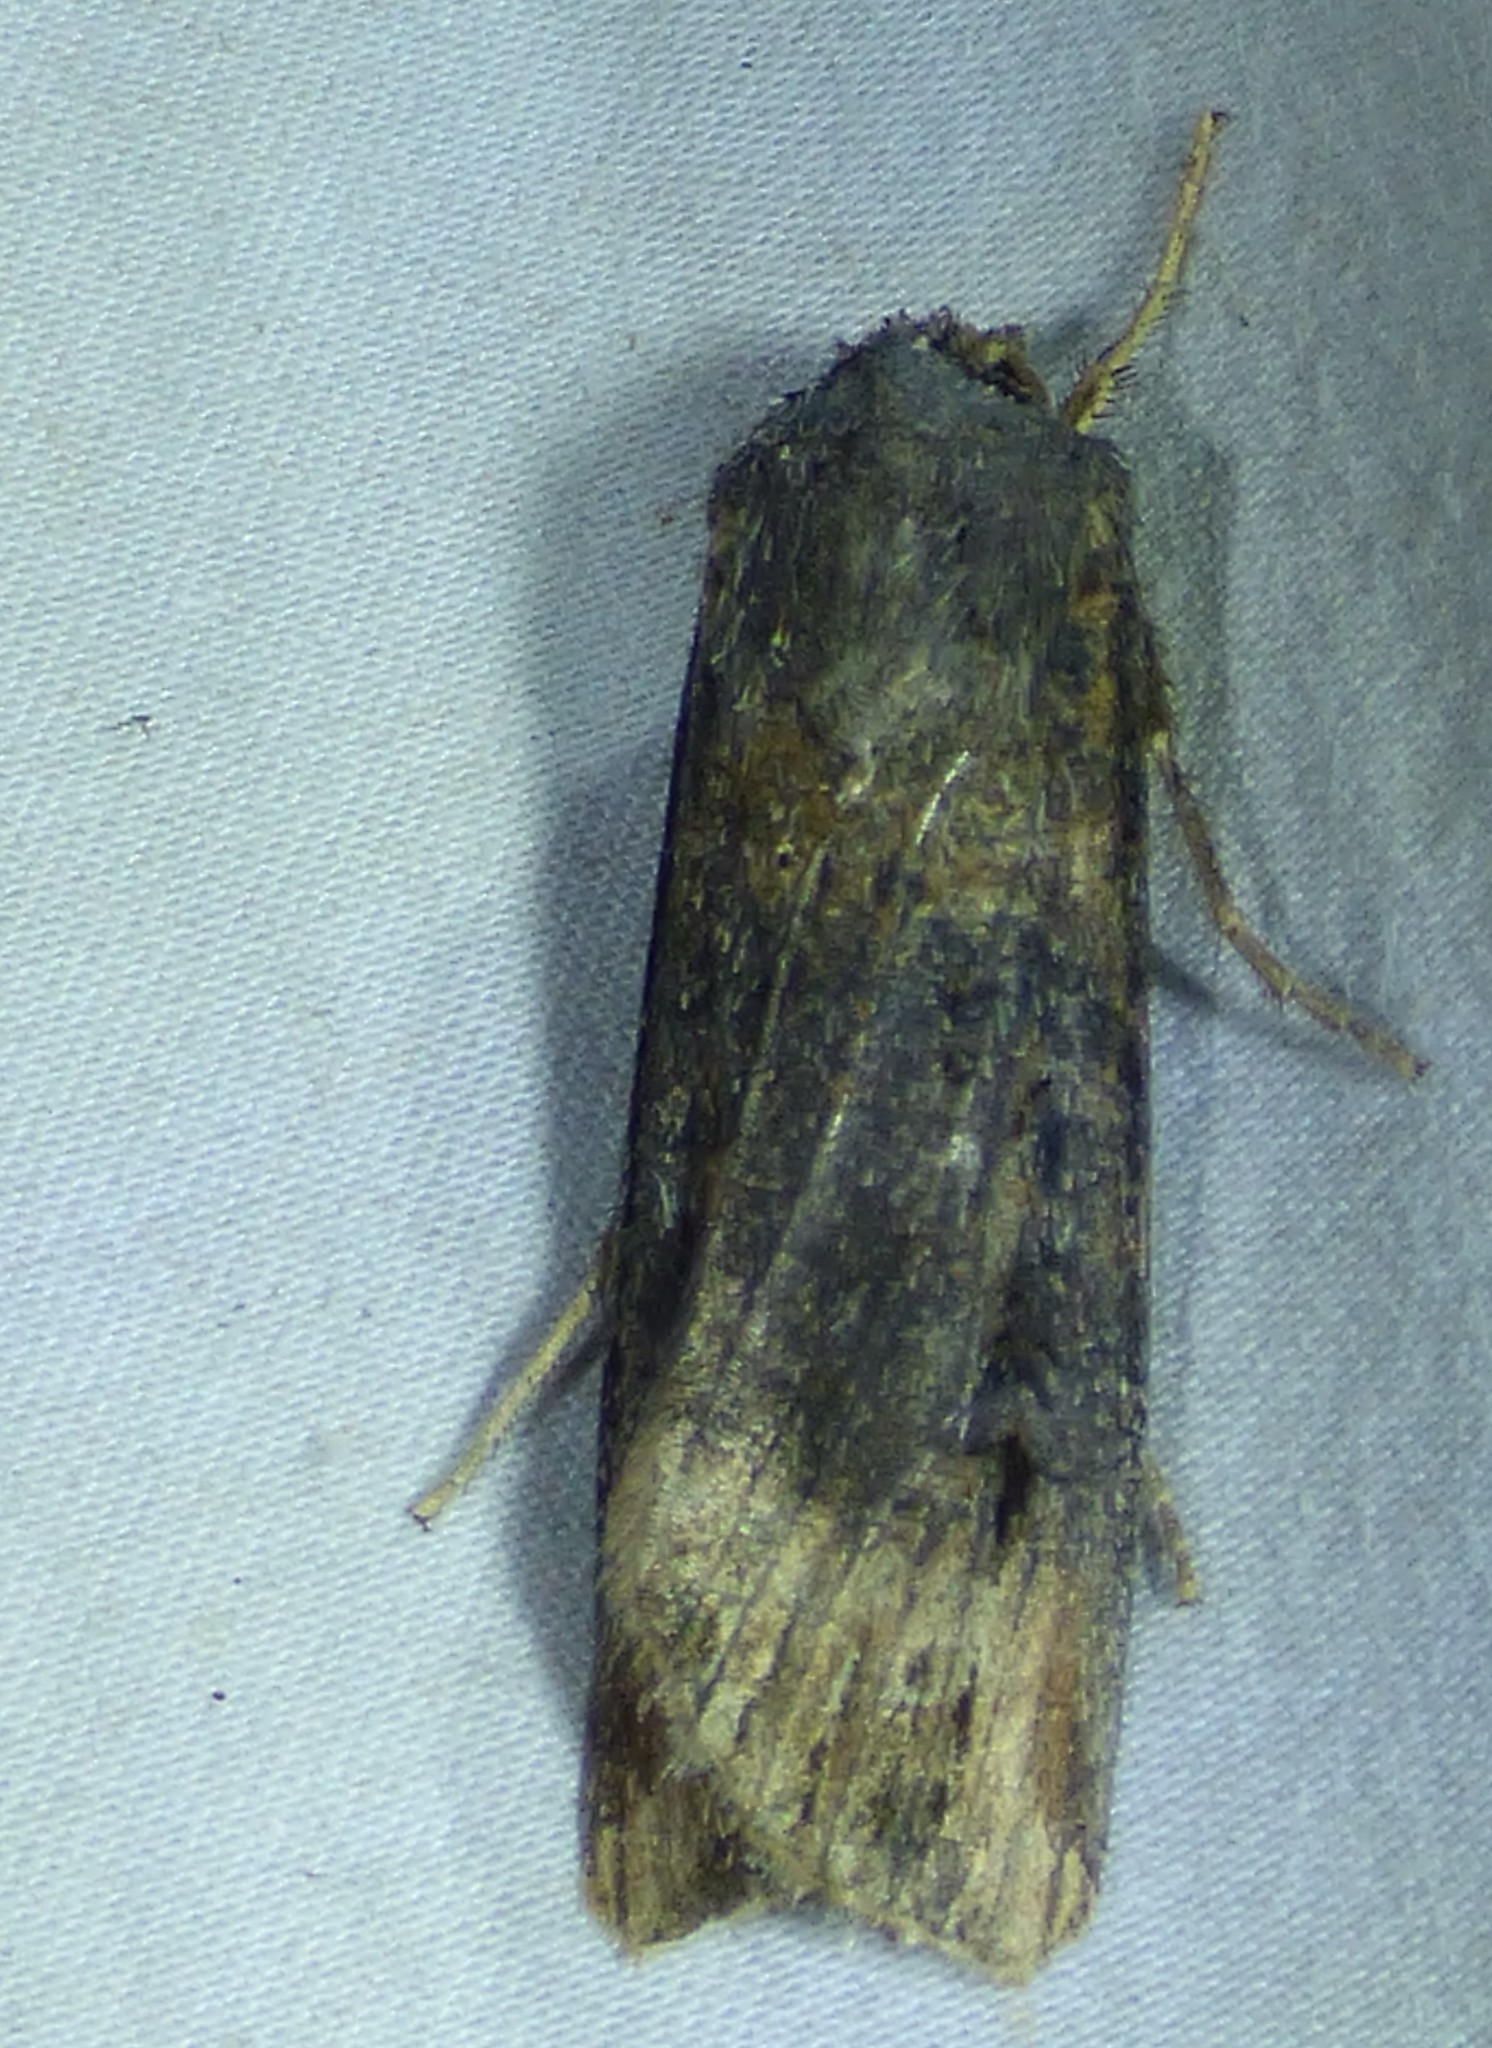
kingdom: Animalia
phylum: Arthropoda
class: Insecta
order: Lepidoptera
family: Noctuidae
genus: Agrotis
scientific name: Agrotis ipsilon
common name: Dark sword-grass
